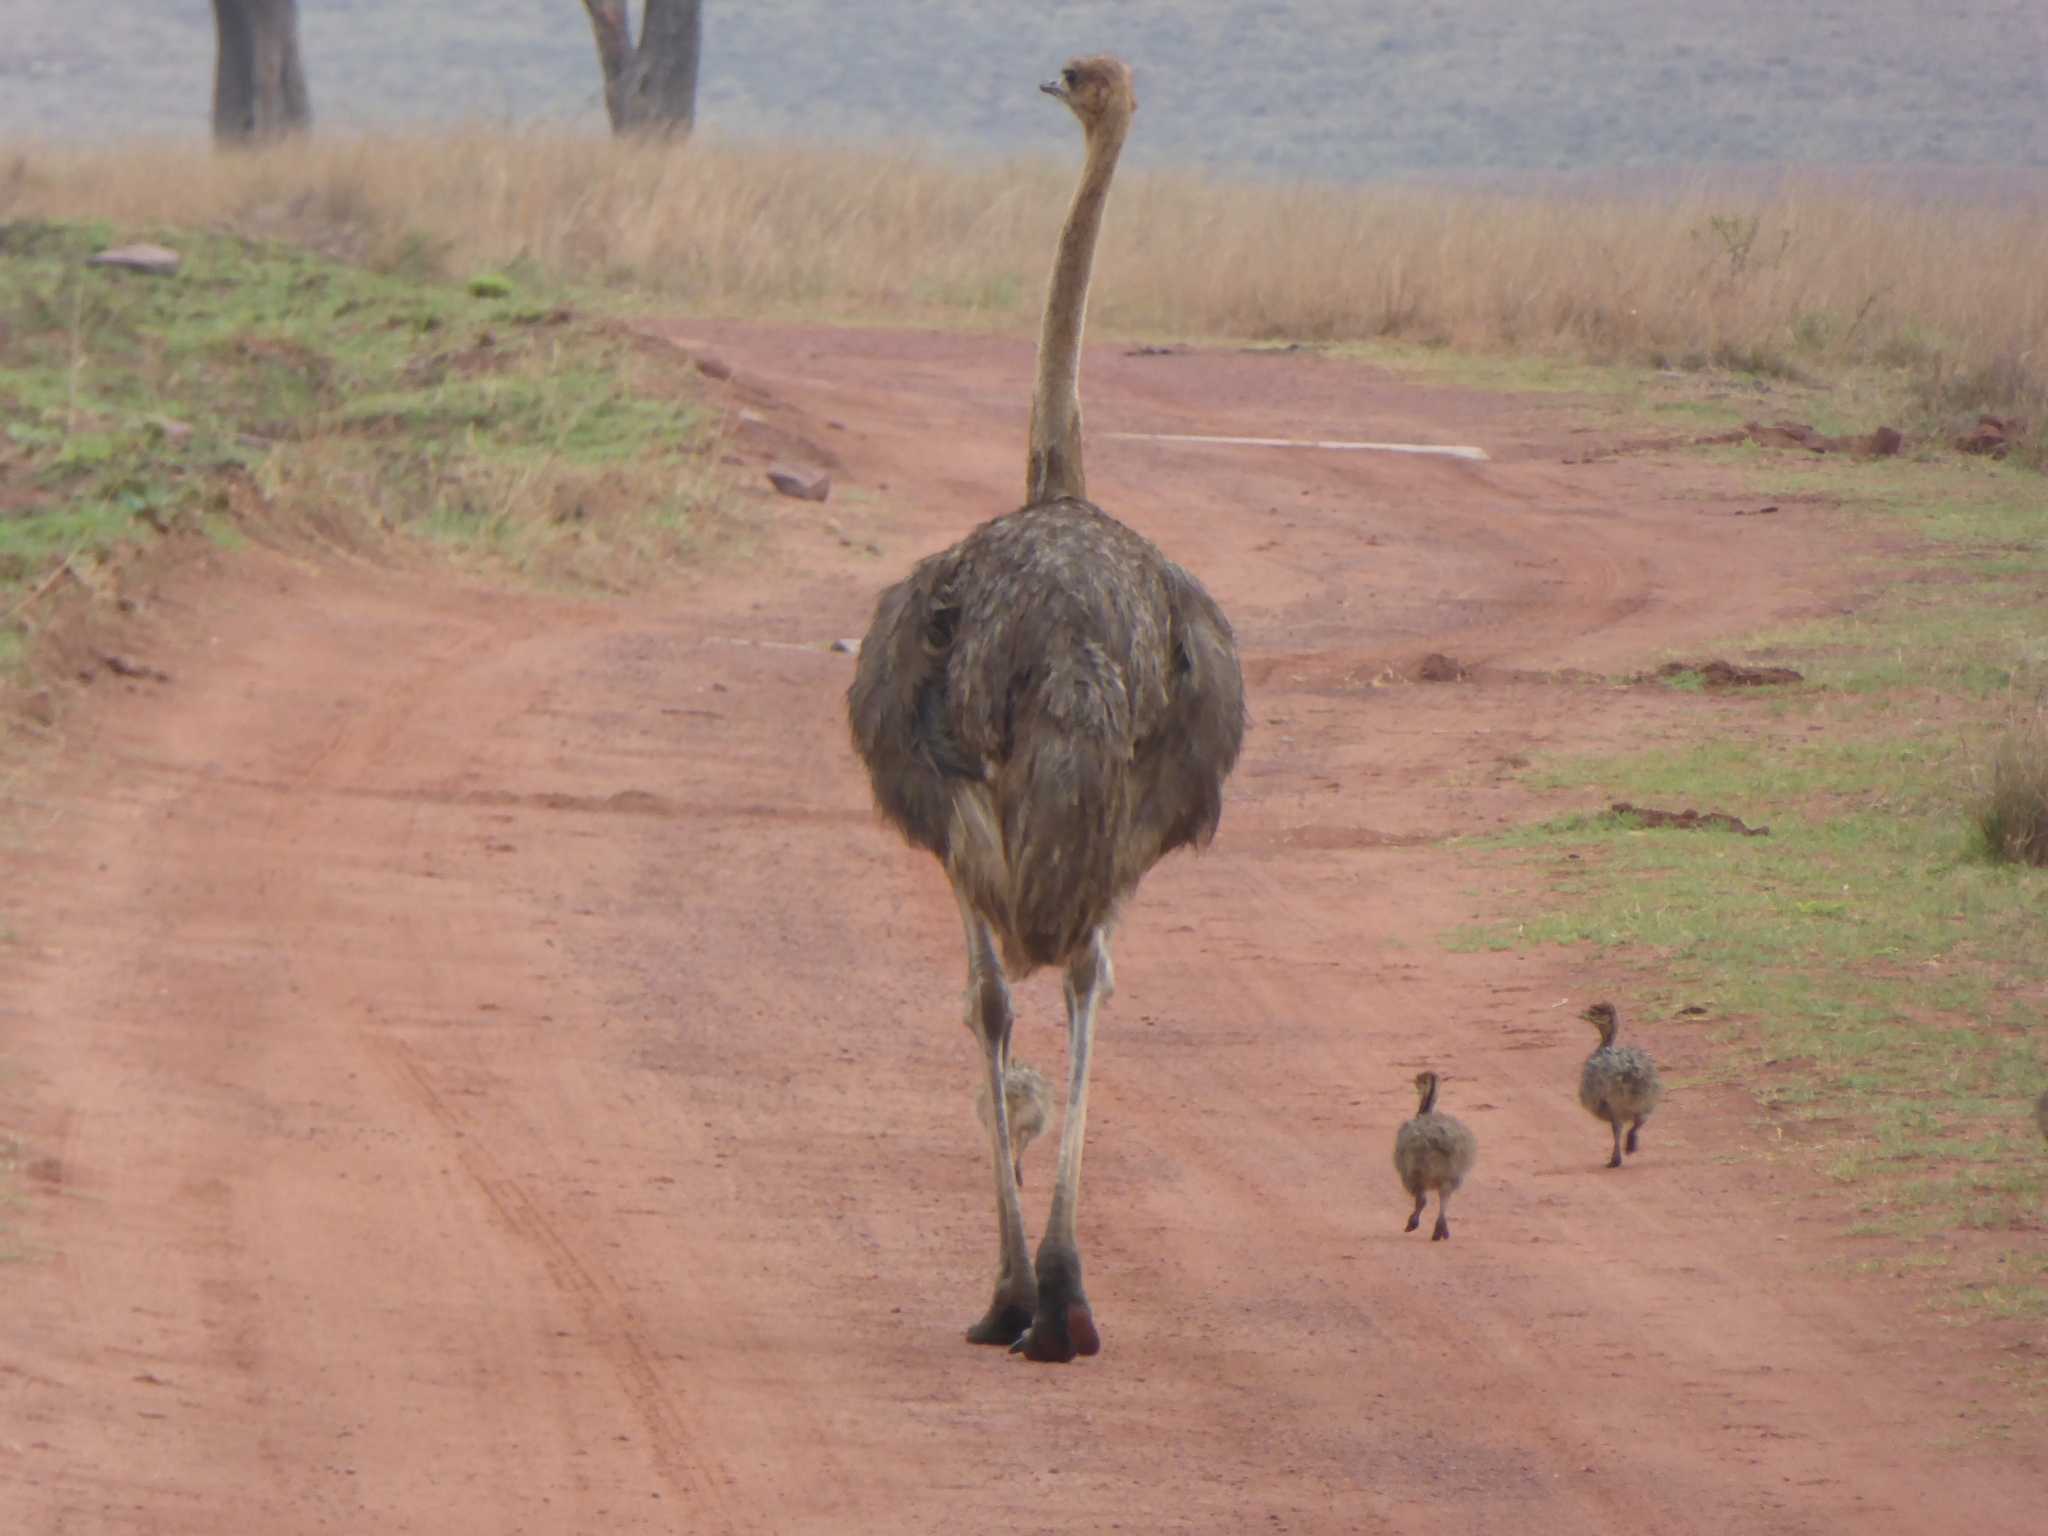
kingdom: Animalia
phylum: Chordata
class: Aves
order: Struthioniformes
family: Struthionidae
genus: Struthio
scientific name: Struthio camelus
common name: Common ostrich
